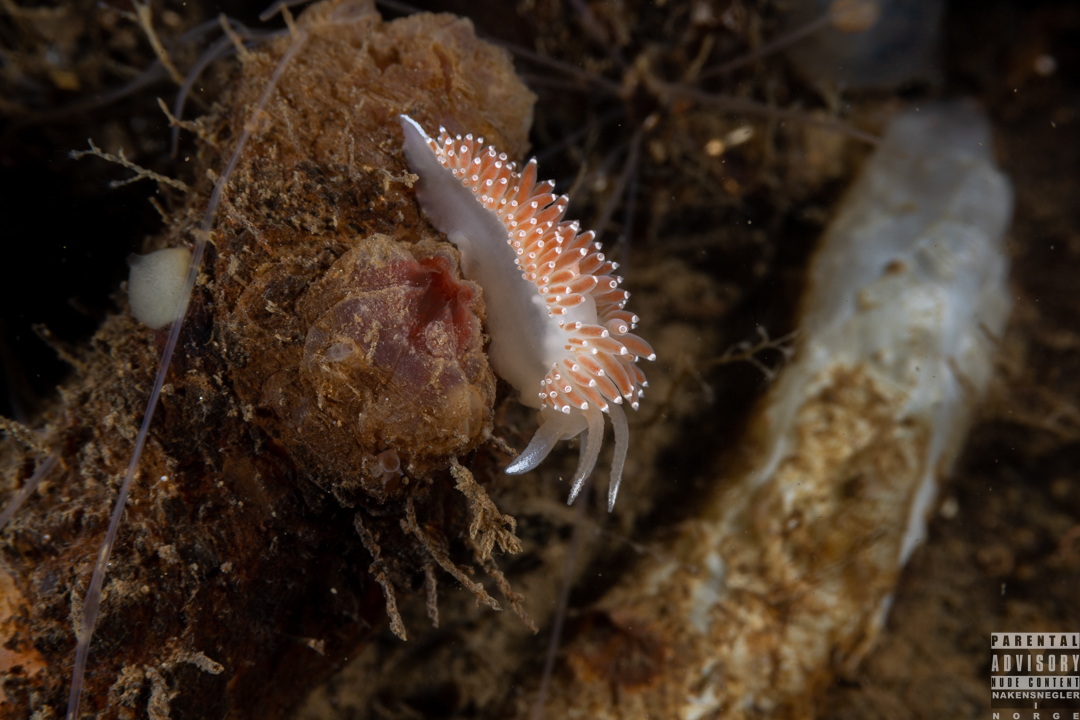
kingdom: Animalia
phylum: Mollusca
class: Gastropoda
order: Nudibranchia
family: Coryphellidae
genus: Coryphella
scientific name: Coryphella verrucosa
